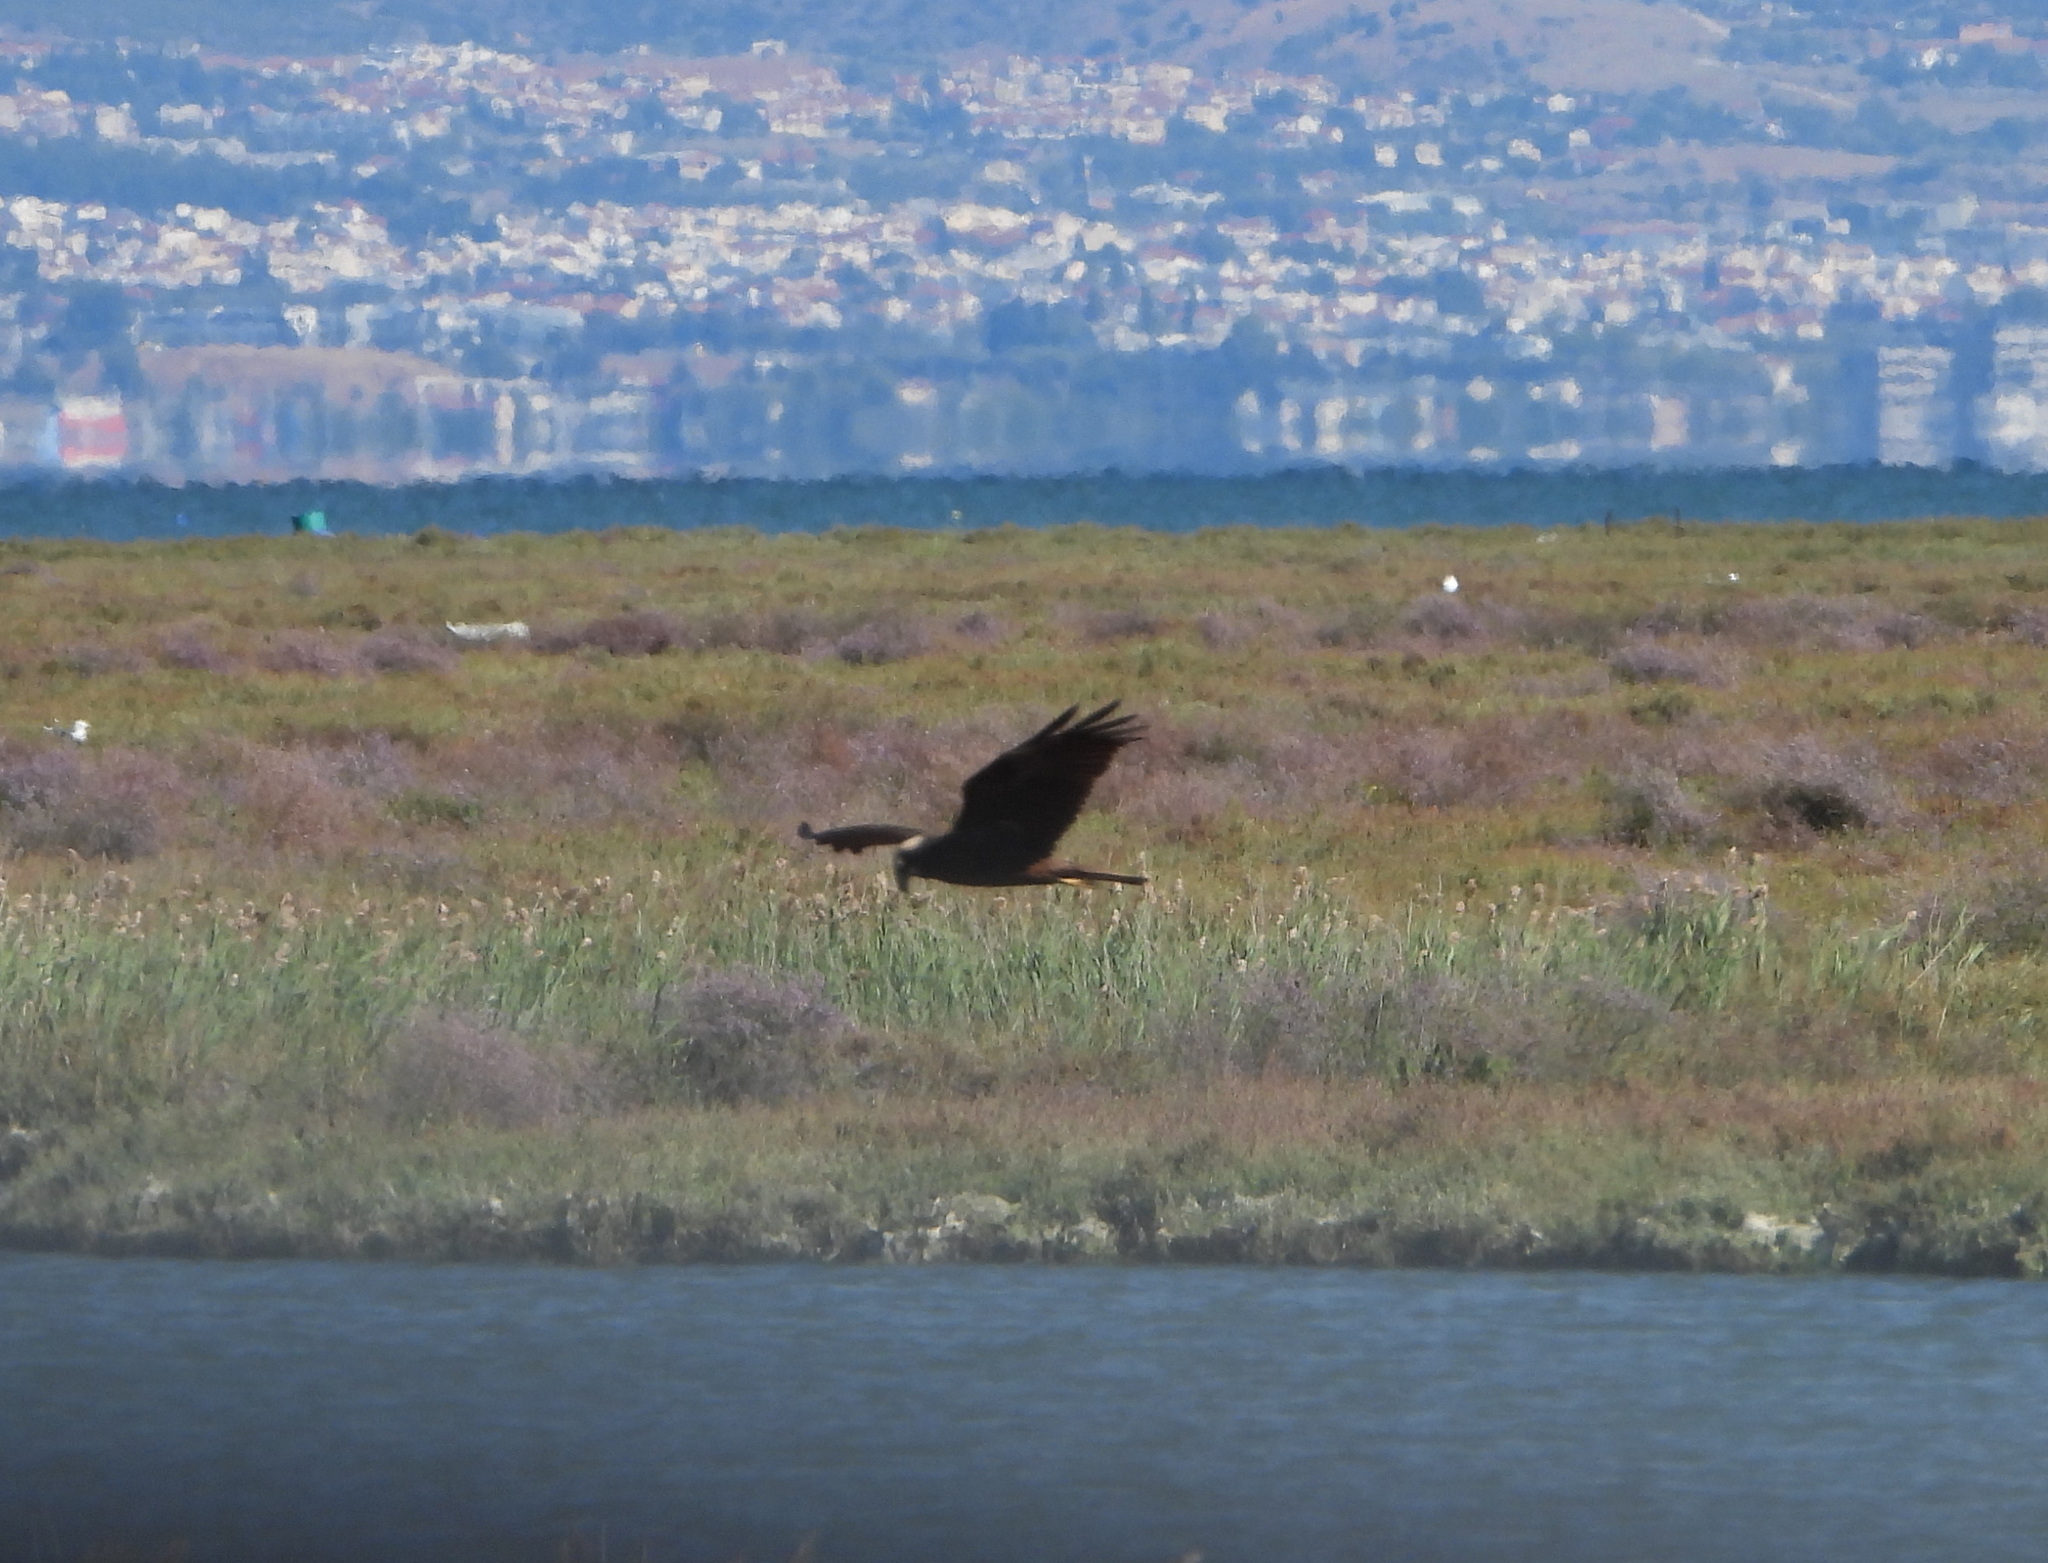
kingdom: Animalia
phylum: Chordata
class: Aves
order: Accipitriformes
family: Accipitridae
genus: Circus
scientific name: Circus aeruginosus
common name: Western marsh harrier
